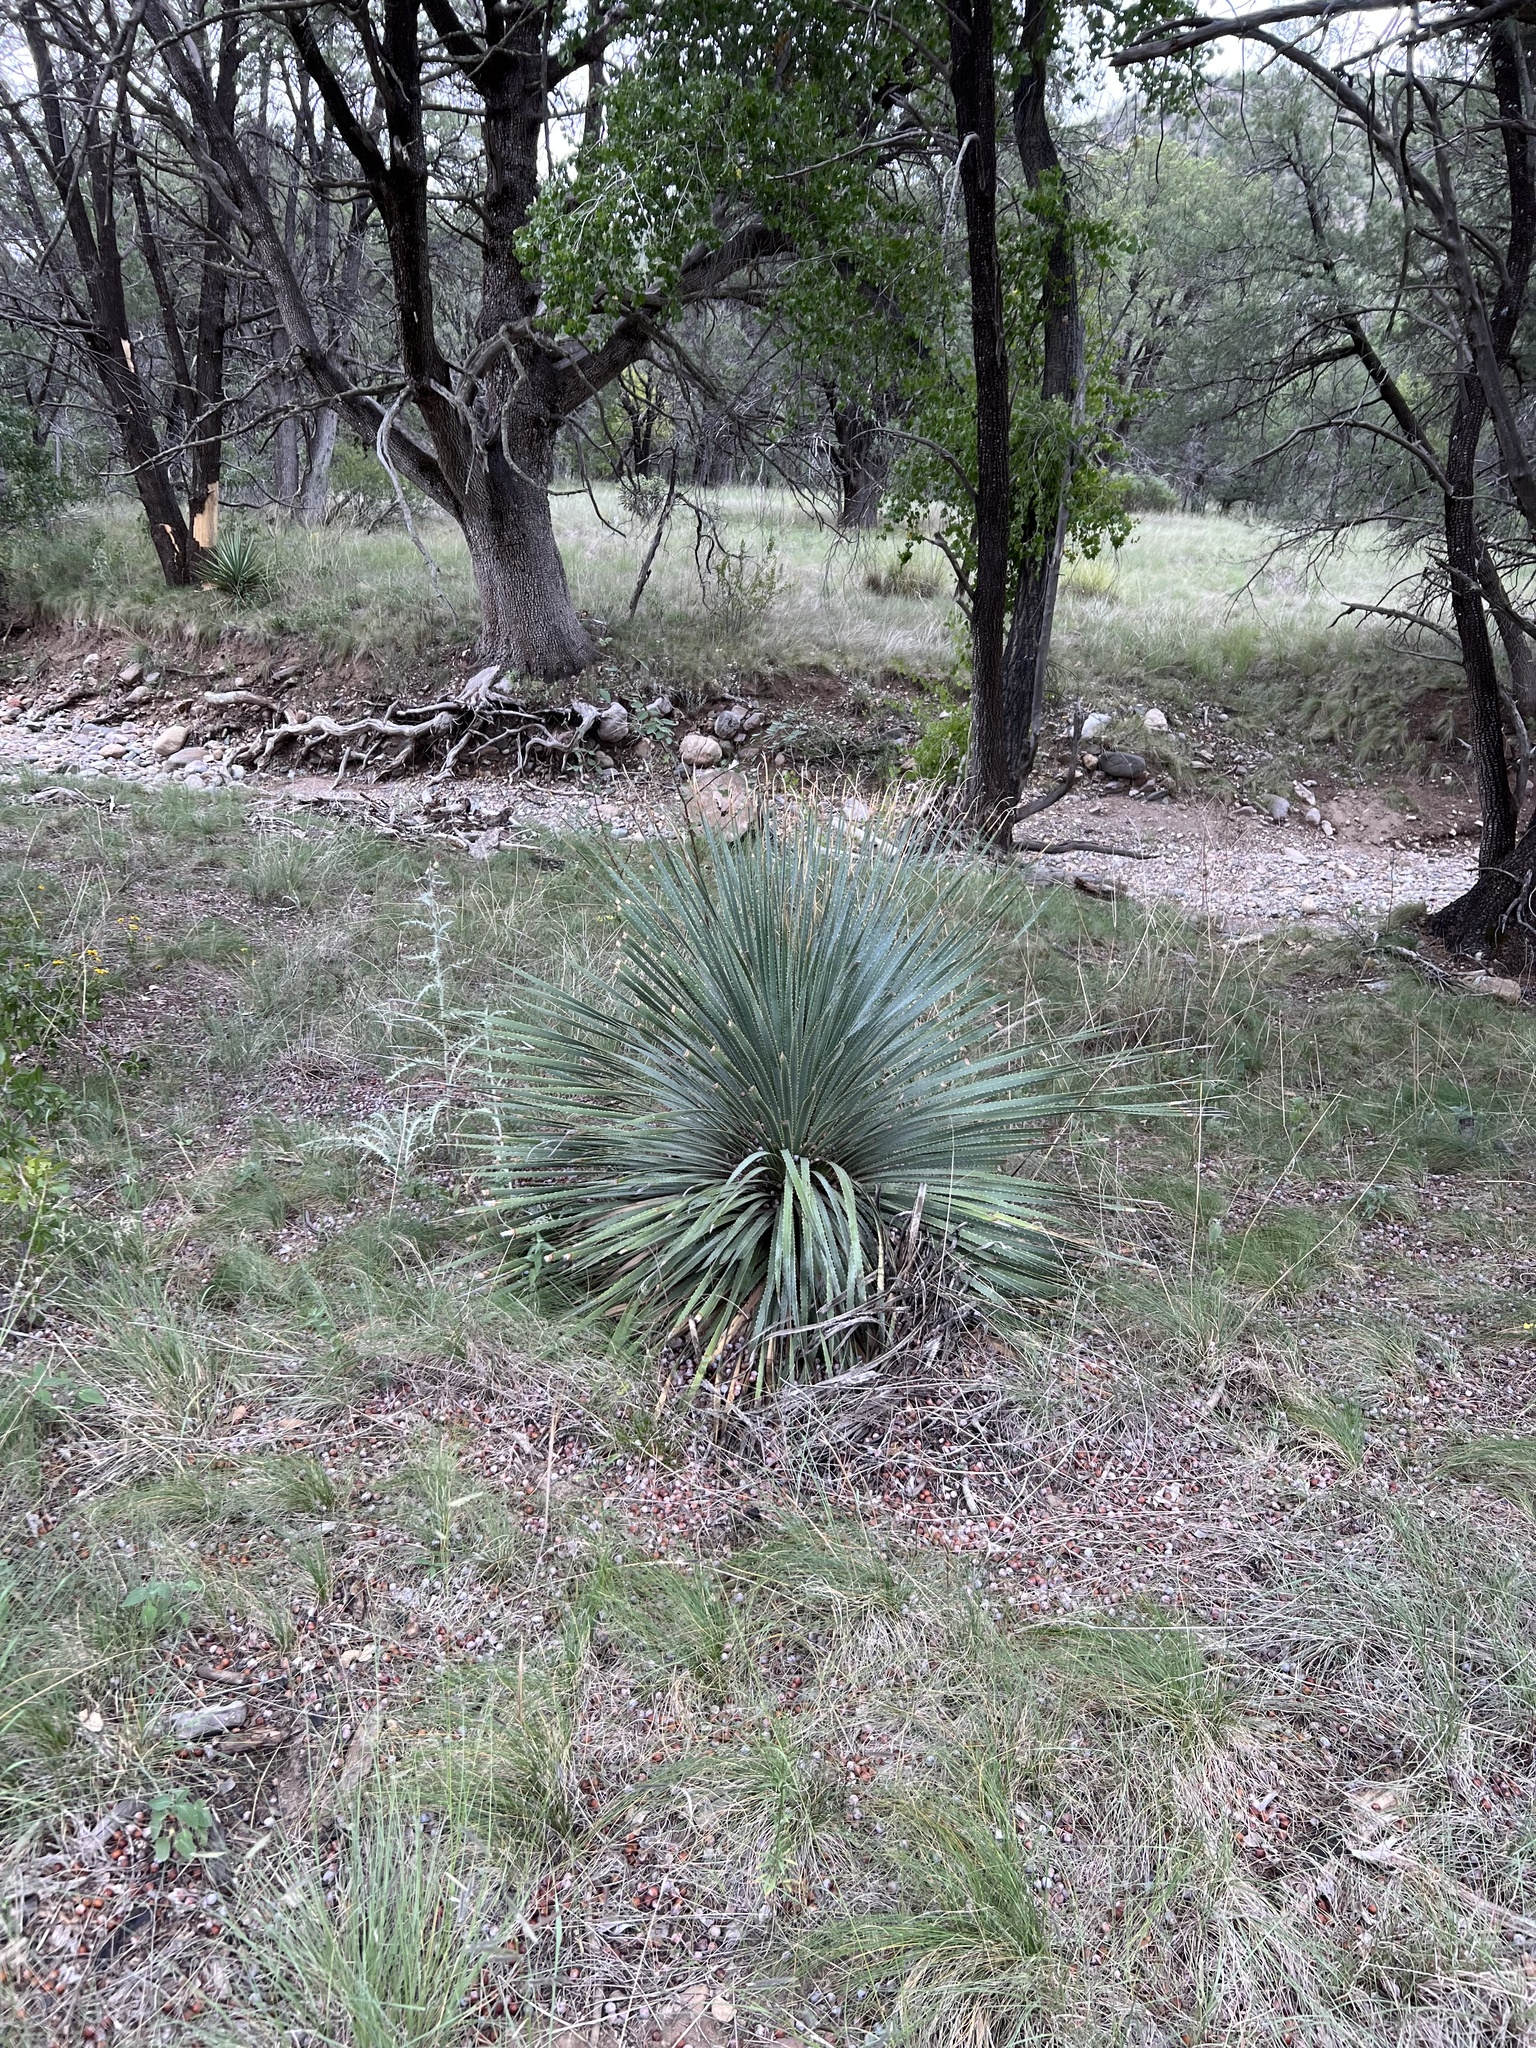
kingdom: Plantae
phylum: Tracheophyta
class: Liliopsida
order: Asparagales
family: Asparagaceae
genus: Dasylirion
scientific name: Dasylirion wheeleri
